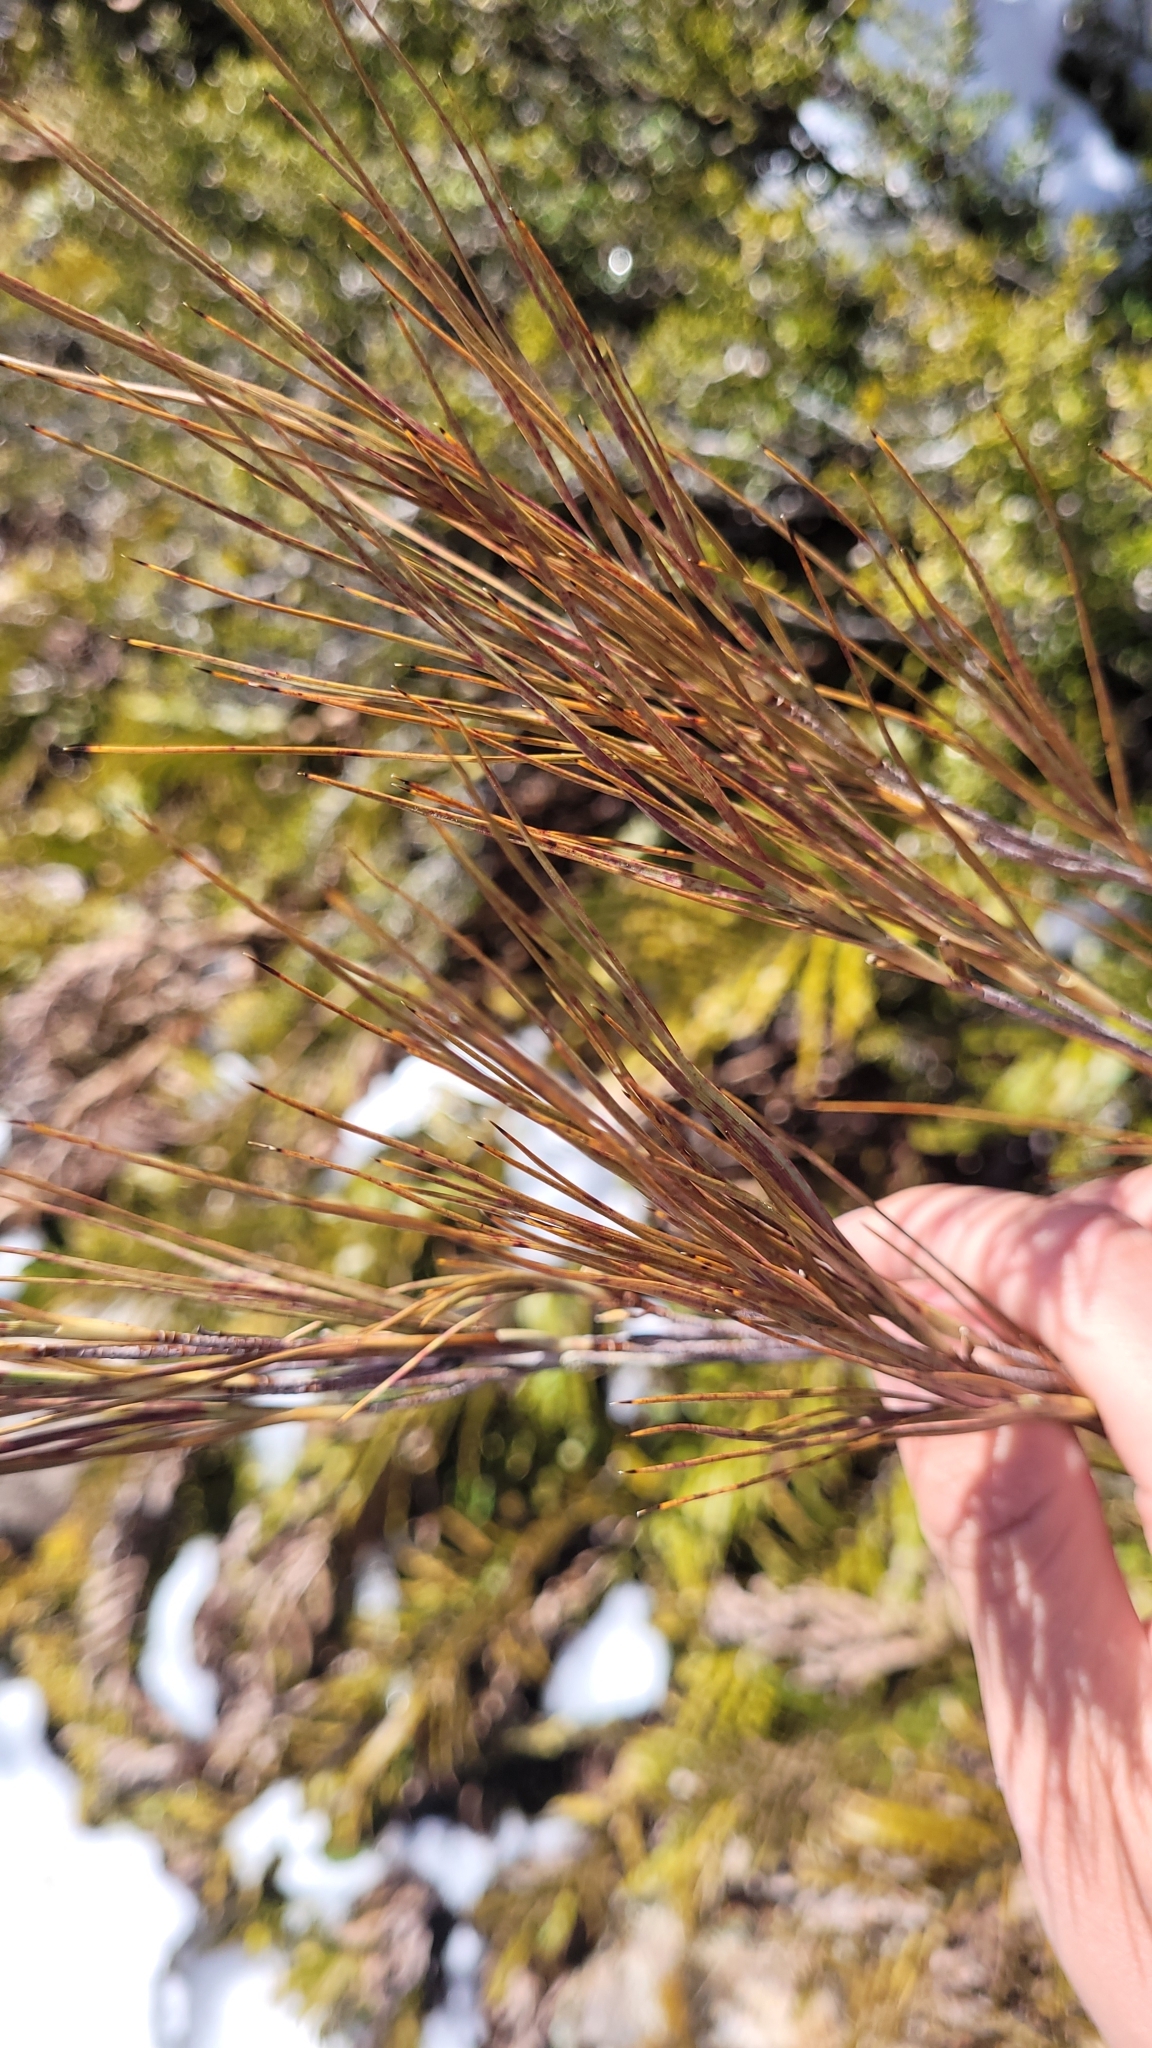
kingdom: Plantae
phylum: Tracheophyta
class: Magnoliopsida
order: Ericales
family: Ericaceae
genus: Dracophyllum
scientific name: Dracophyllum longifolium
